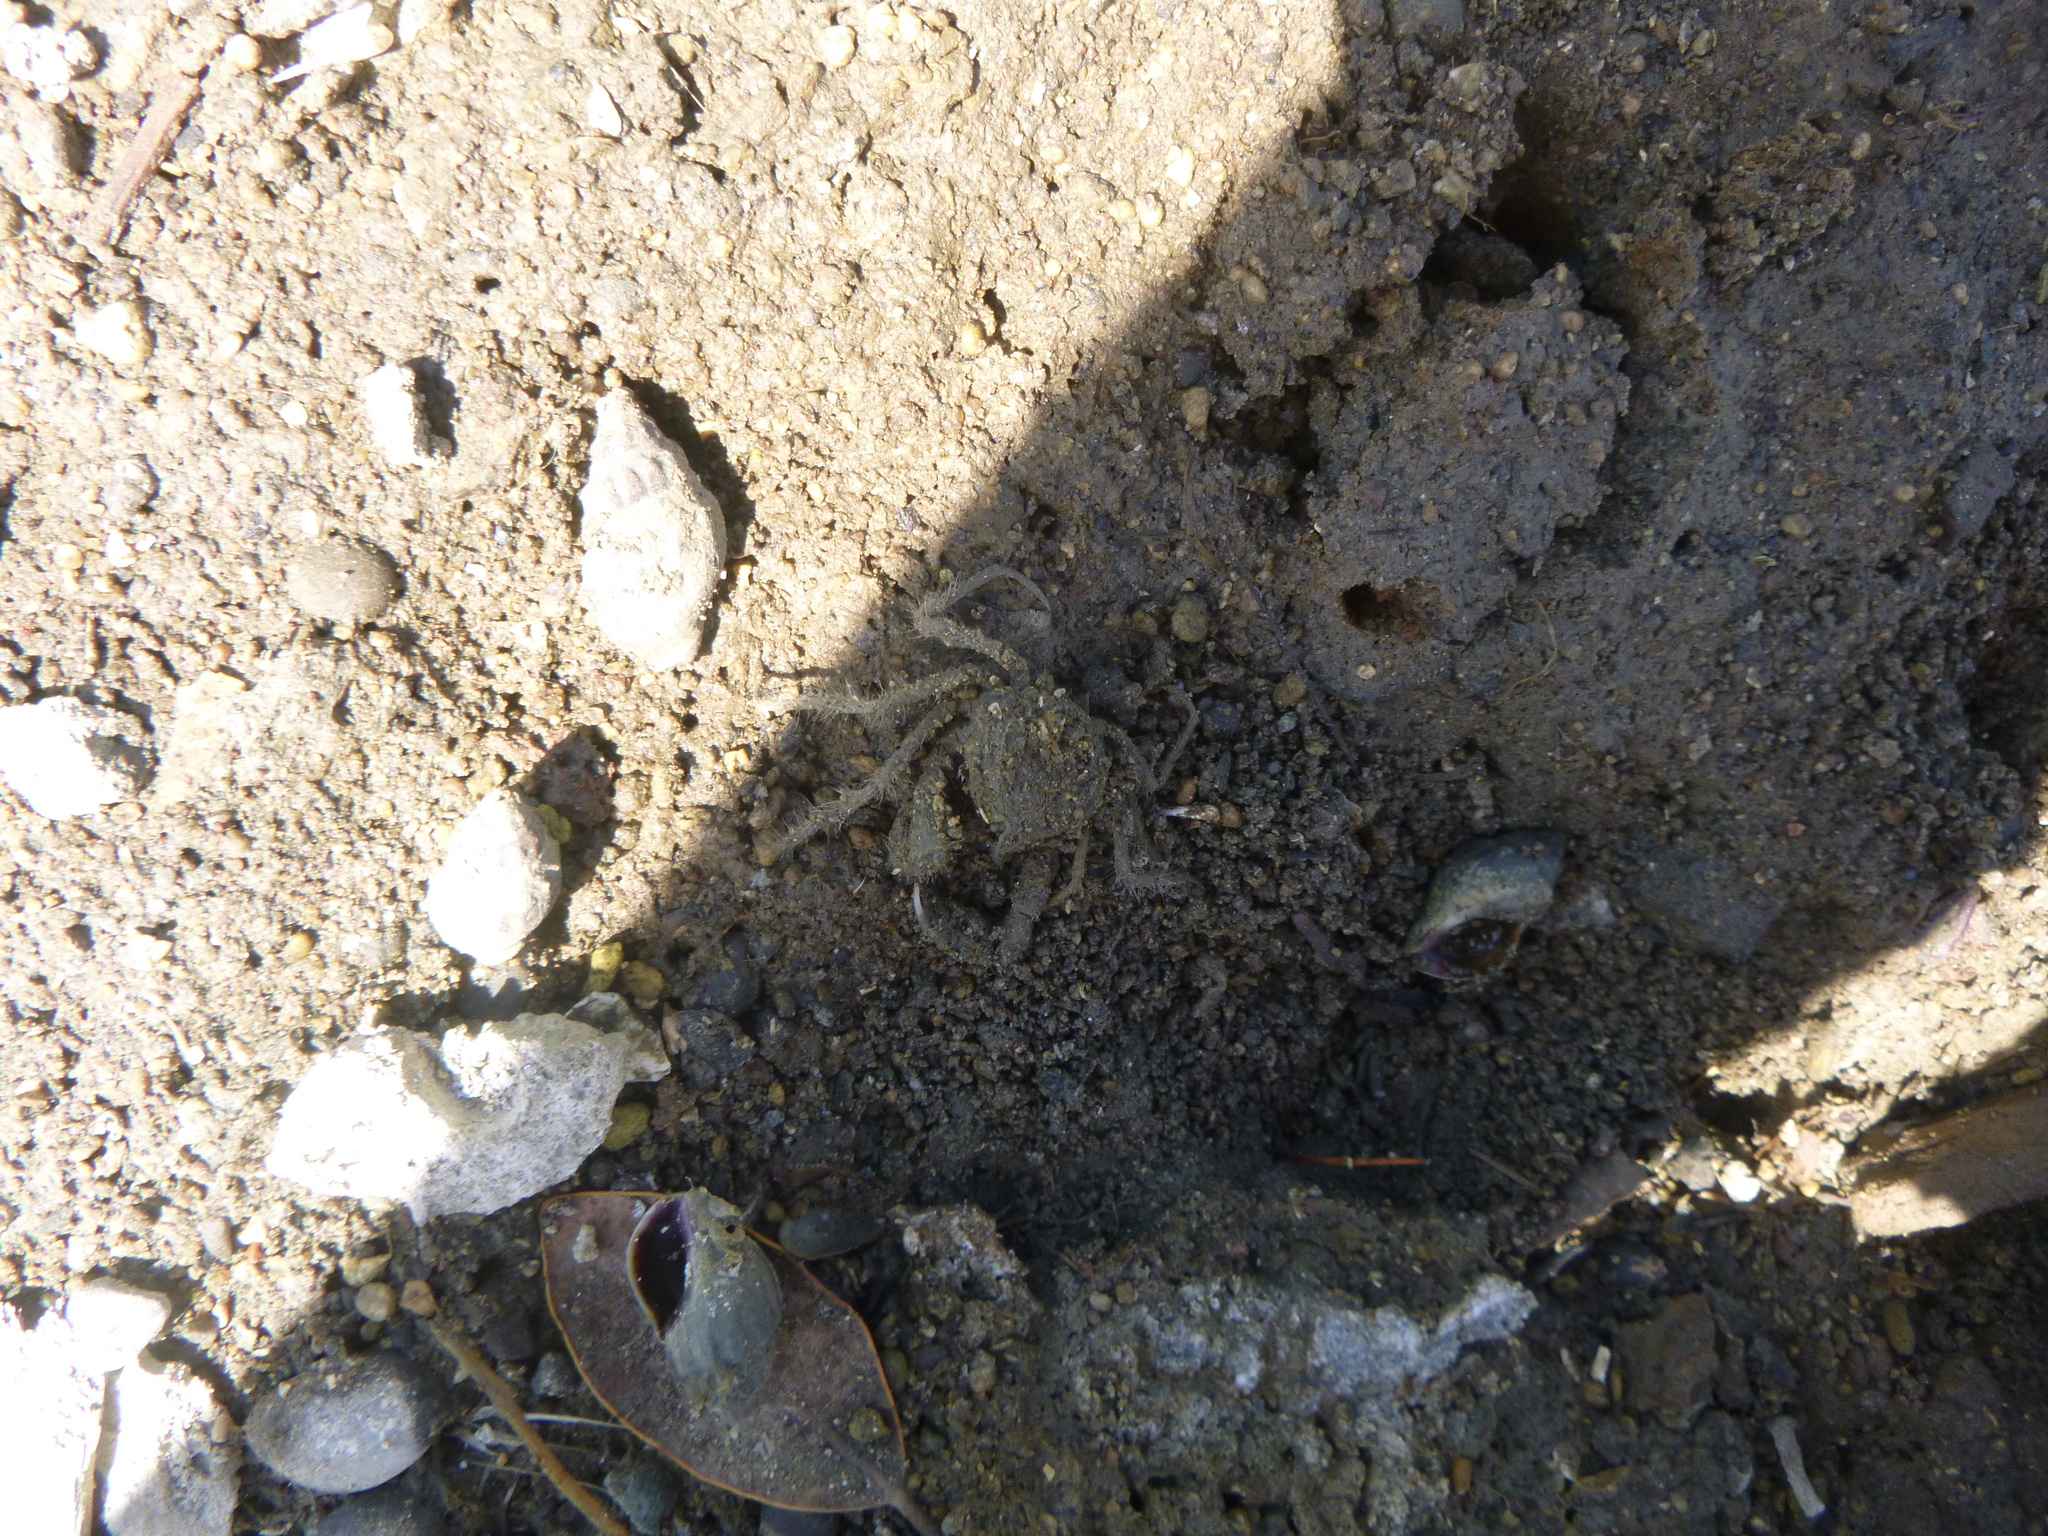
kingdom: Animalia
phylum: Arthropoda
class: Malacostraca
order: Decapoda
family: Hymenosomatidae
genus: Halicarcinus
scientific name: Halicarcinus whitei
